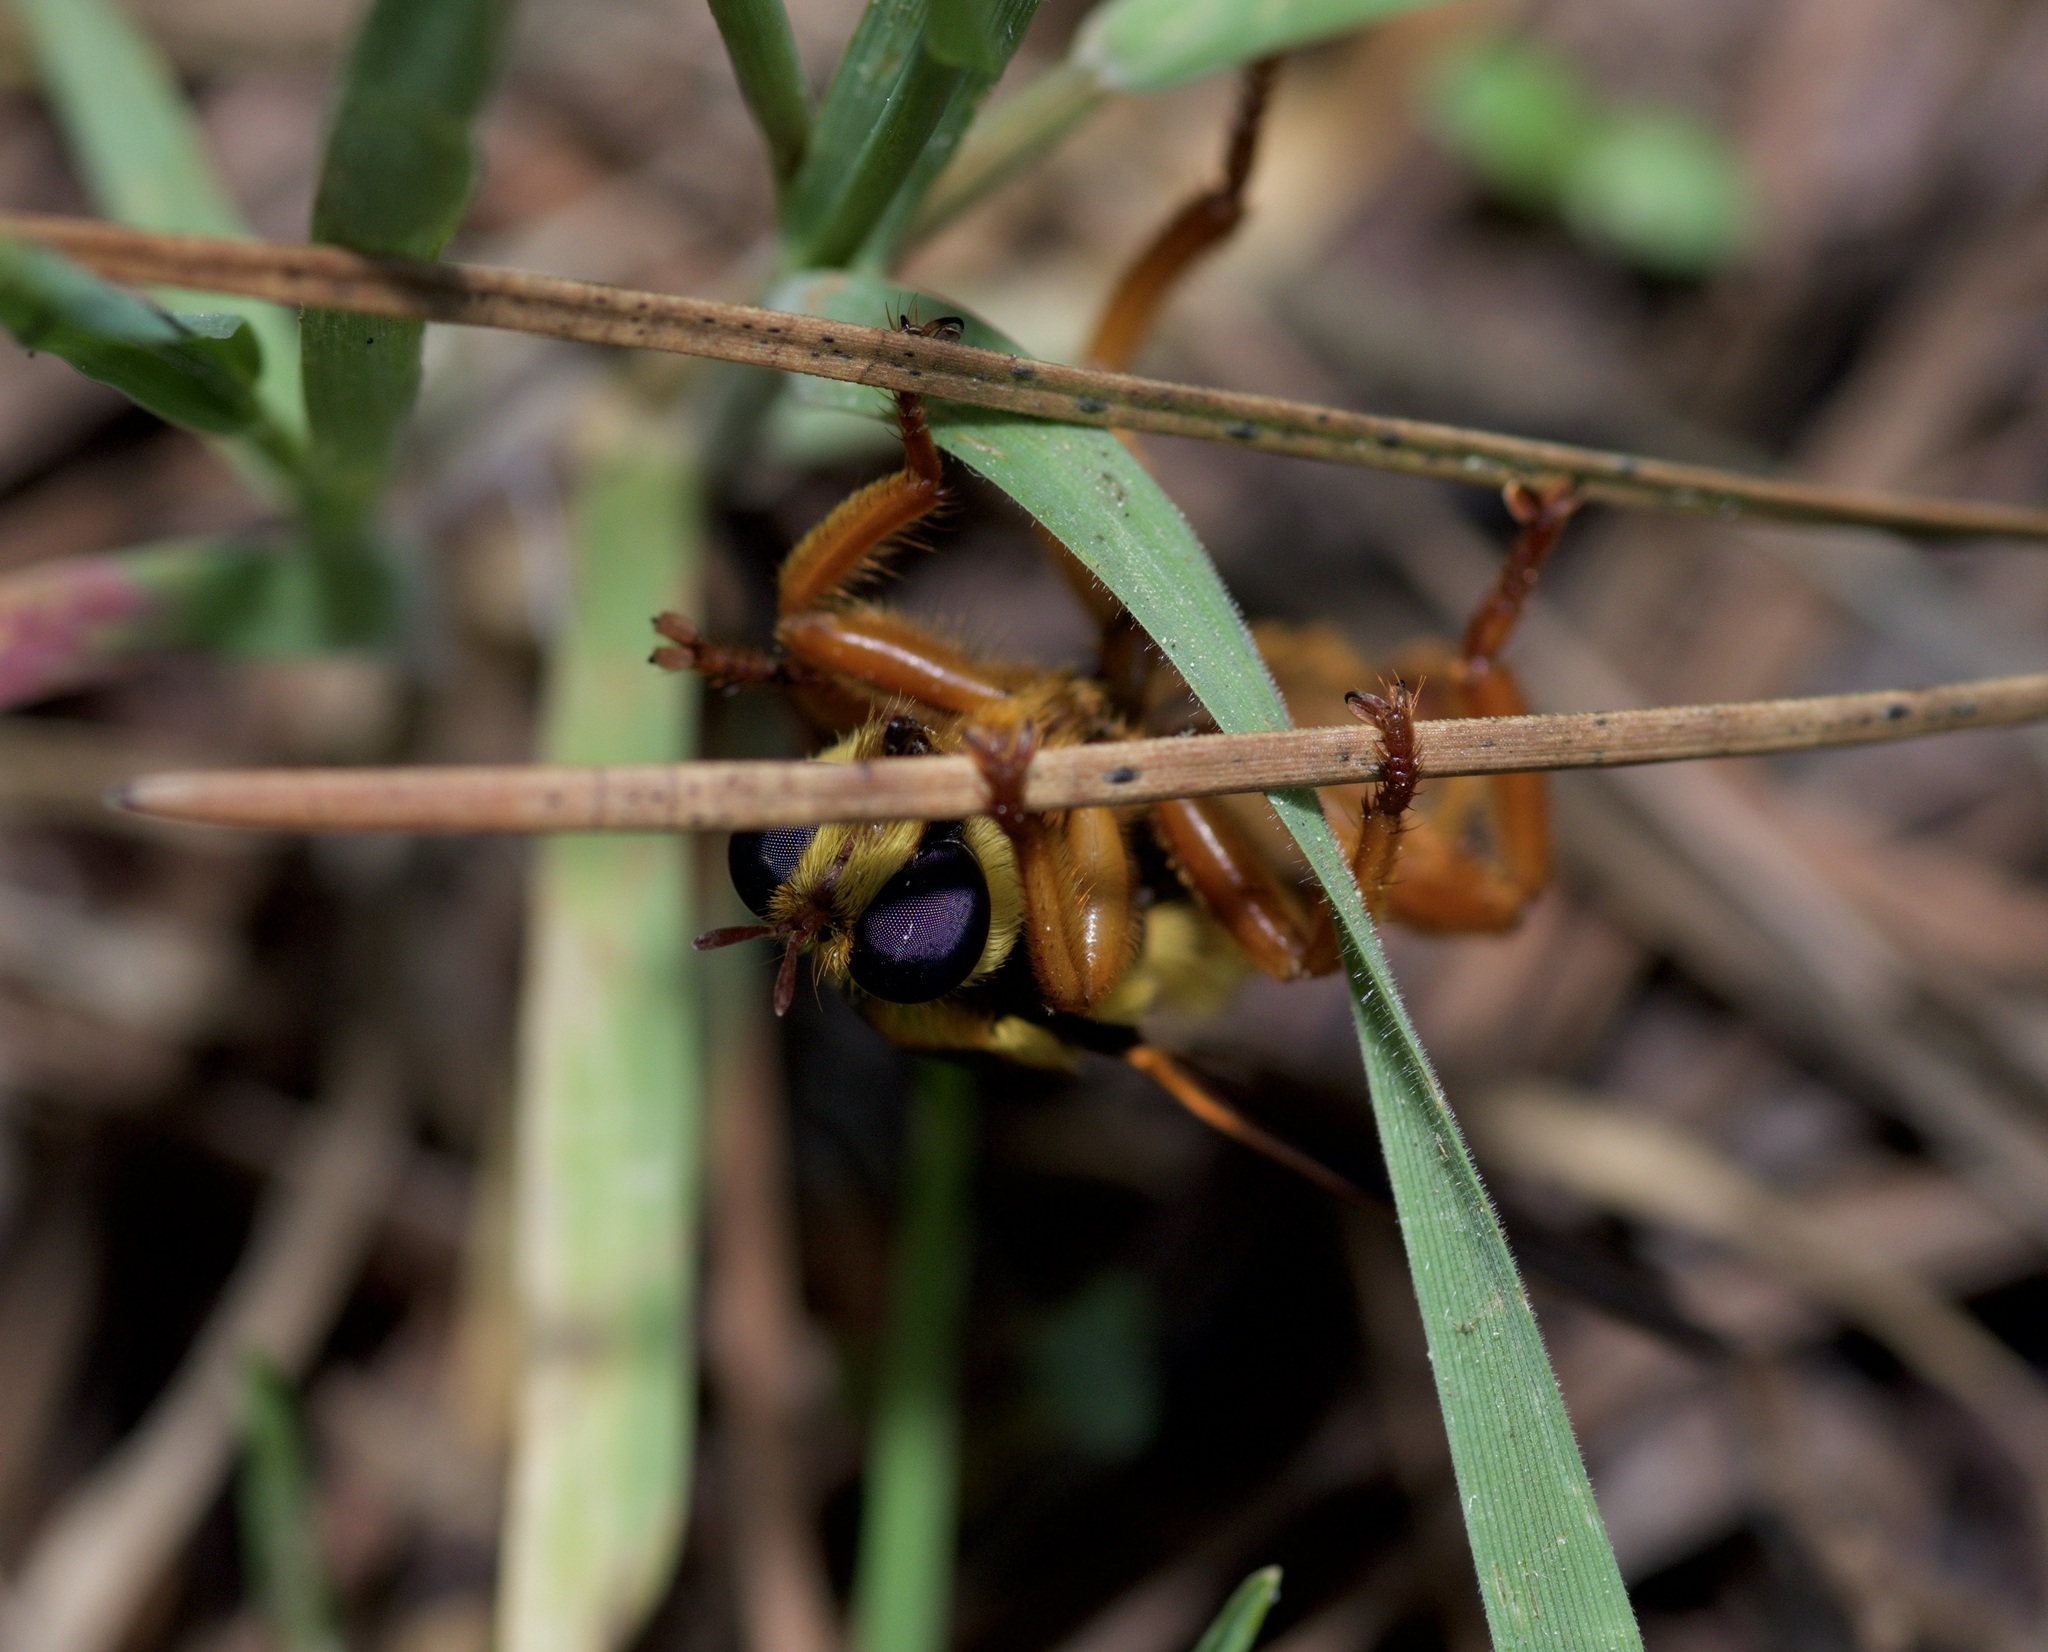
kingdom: Animalia
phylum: Arthropoda
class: Insecta
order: Diptera
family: Asilidae
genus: Laphria
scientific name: Laphria saffrana
